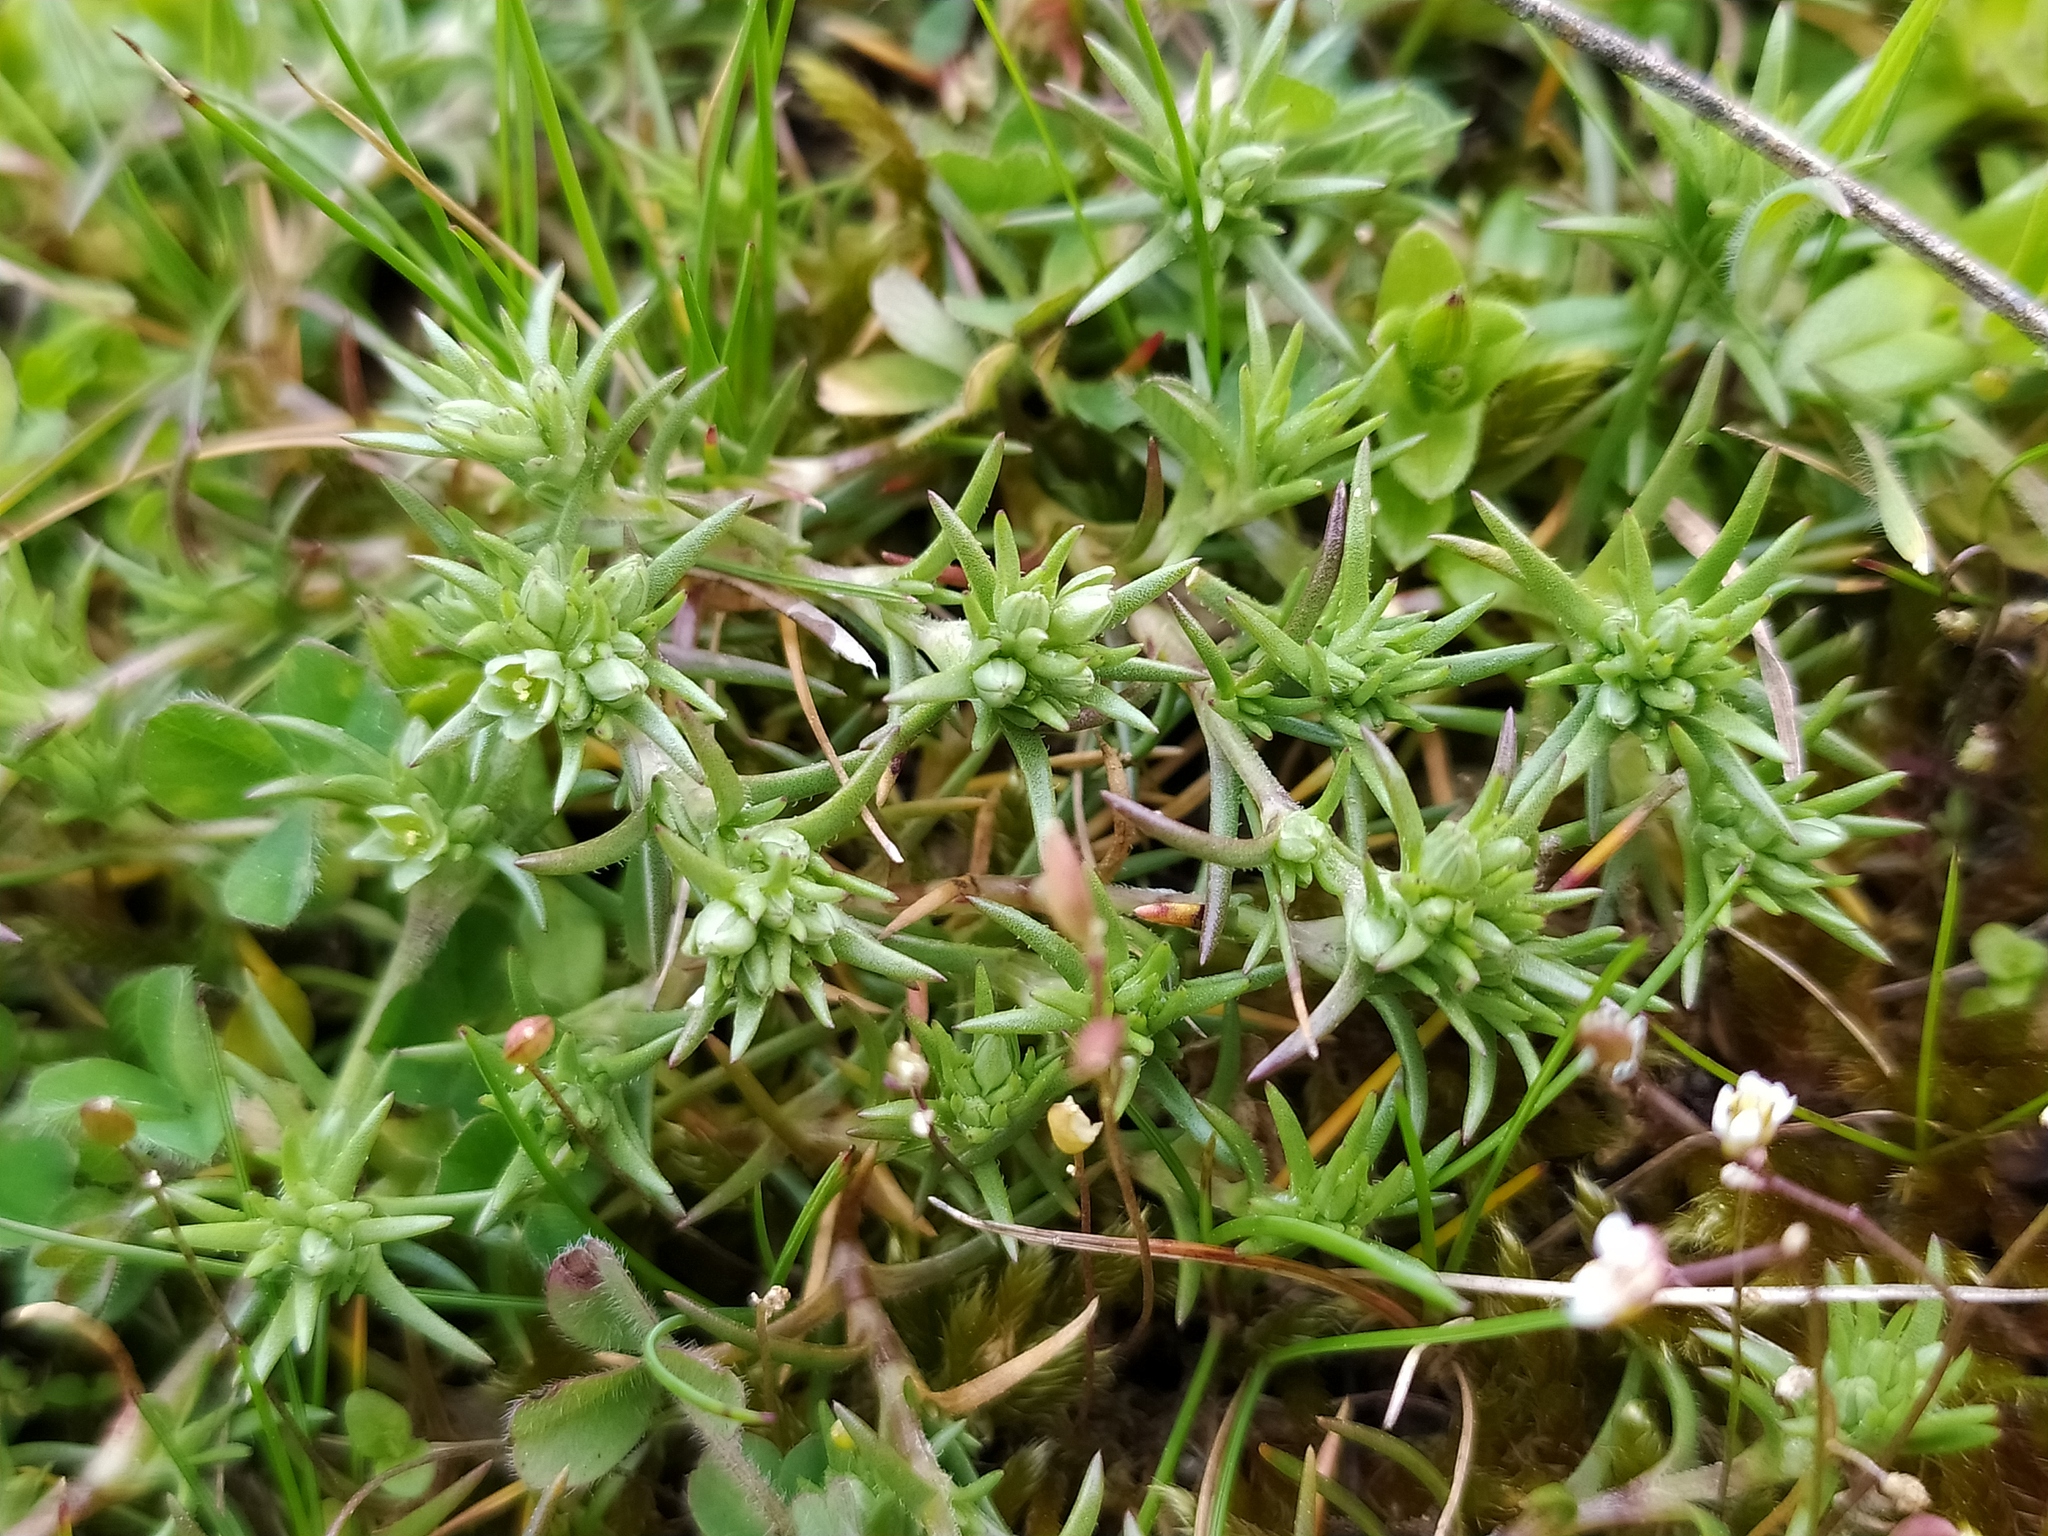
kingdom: Plantae
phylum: Tracheophyta
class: Magnoliopsida
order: Caryophyllales
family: Caryophyllaceae
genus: Scleranthus
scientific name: Scleranthus annuus
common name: Annual knawel
